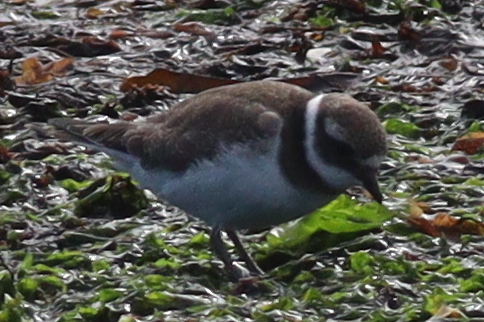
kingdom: Animalia
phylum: Chordata
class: Aves
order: Charadriiformes
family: Charadriidae
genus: Charadrius
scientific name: Charadrius hiaticula
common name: Common ringed plover
